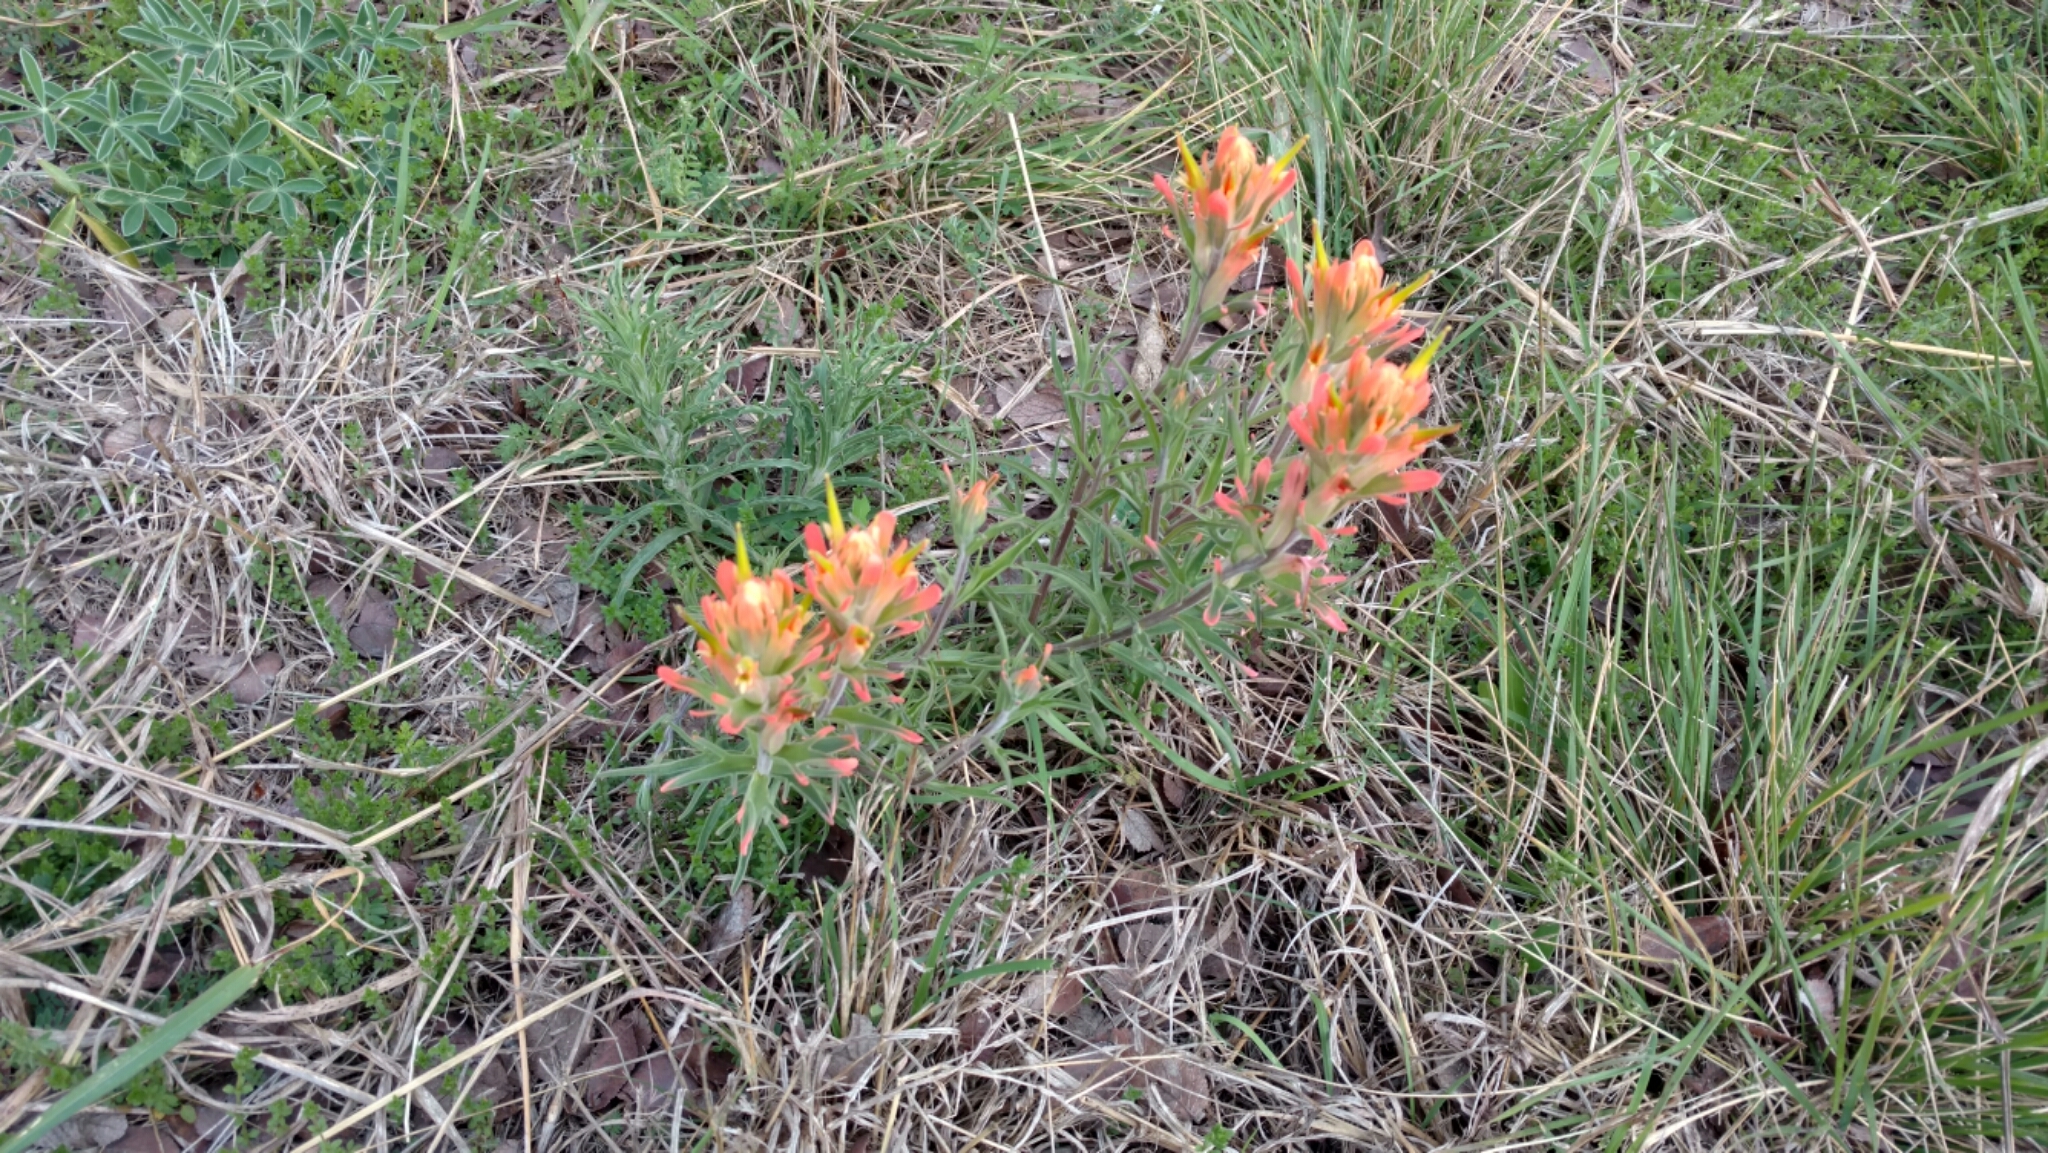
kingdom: Plantae
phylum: Tracheophyta
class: Magnoliopsida
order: Lamiales
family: Orobanchaceae
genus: Castilleja
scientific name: Castilleja lindheimeri
